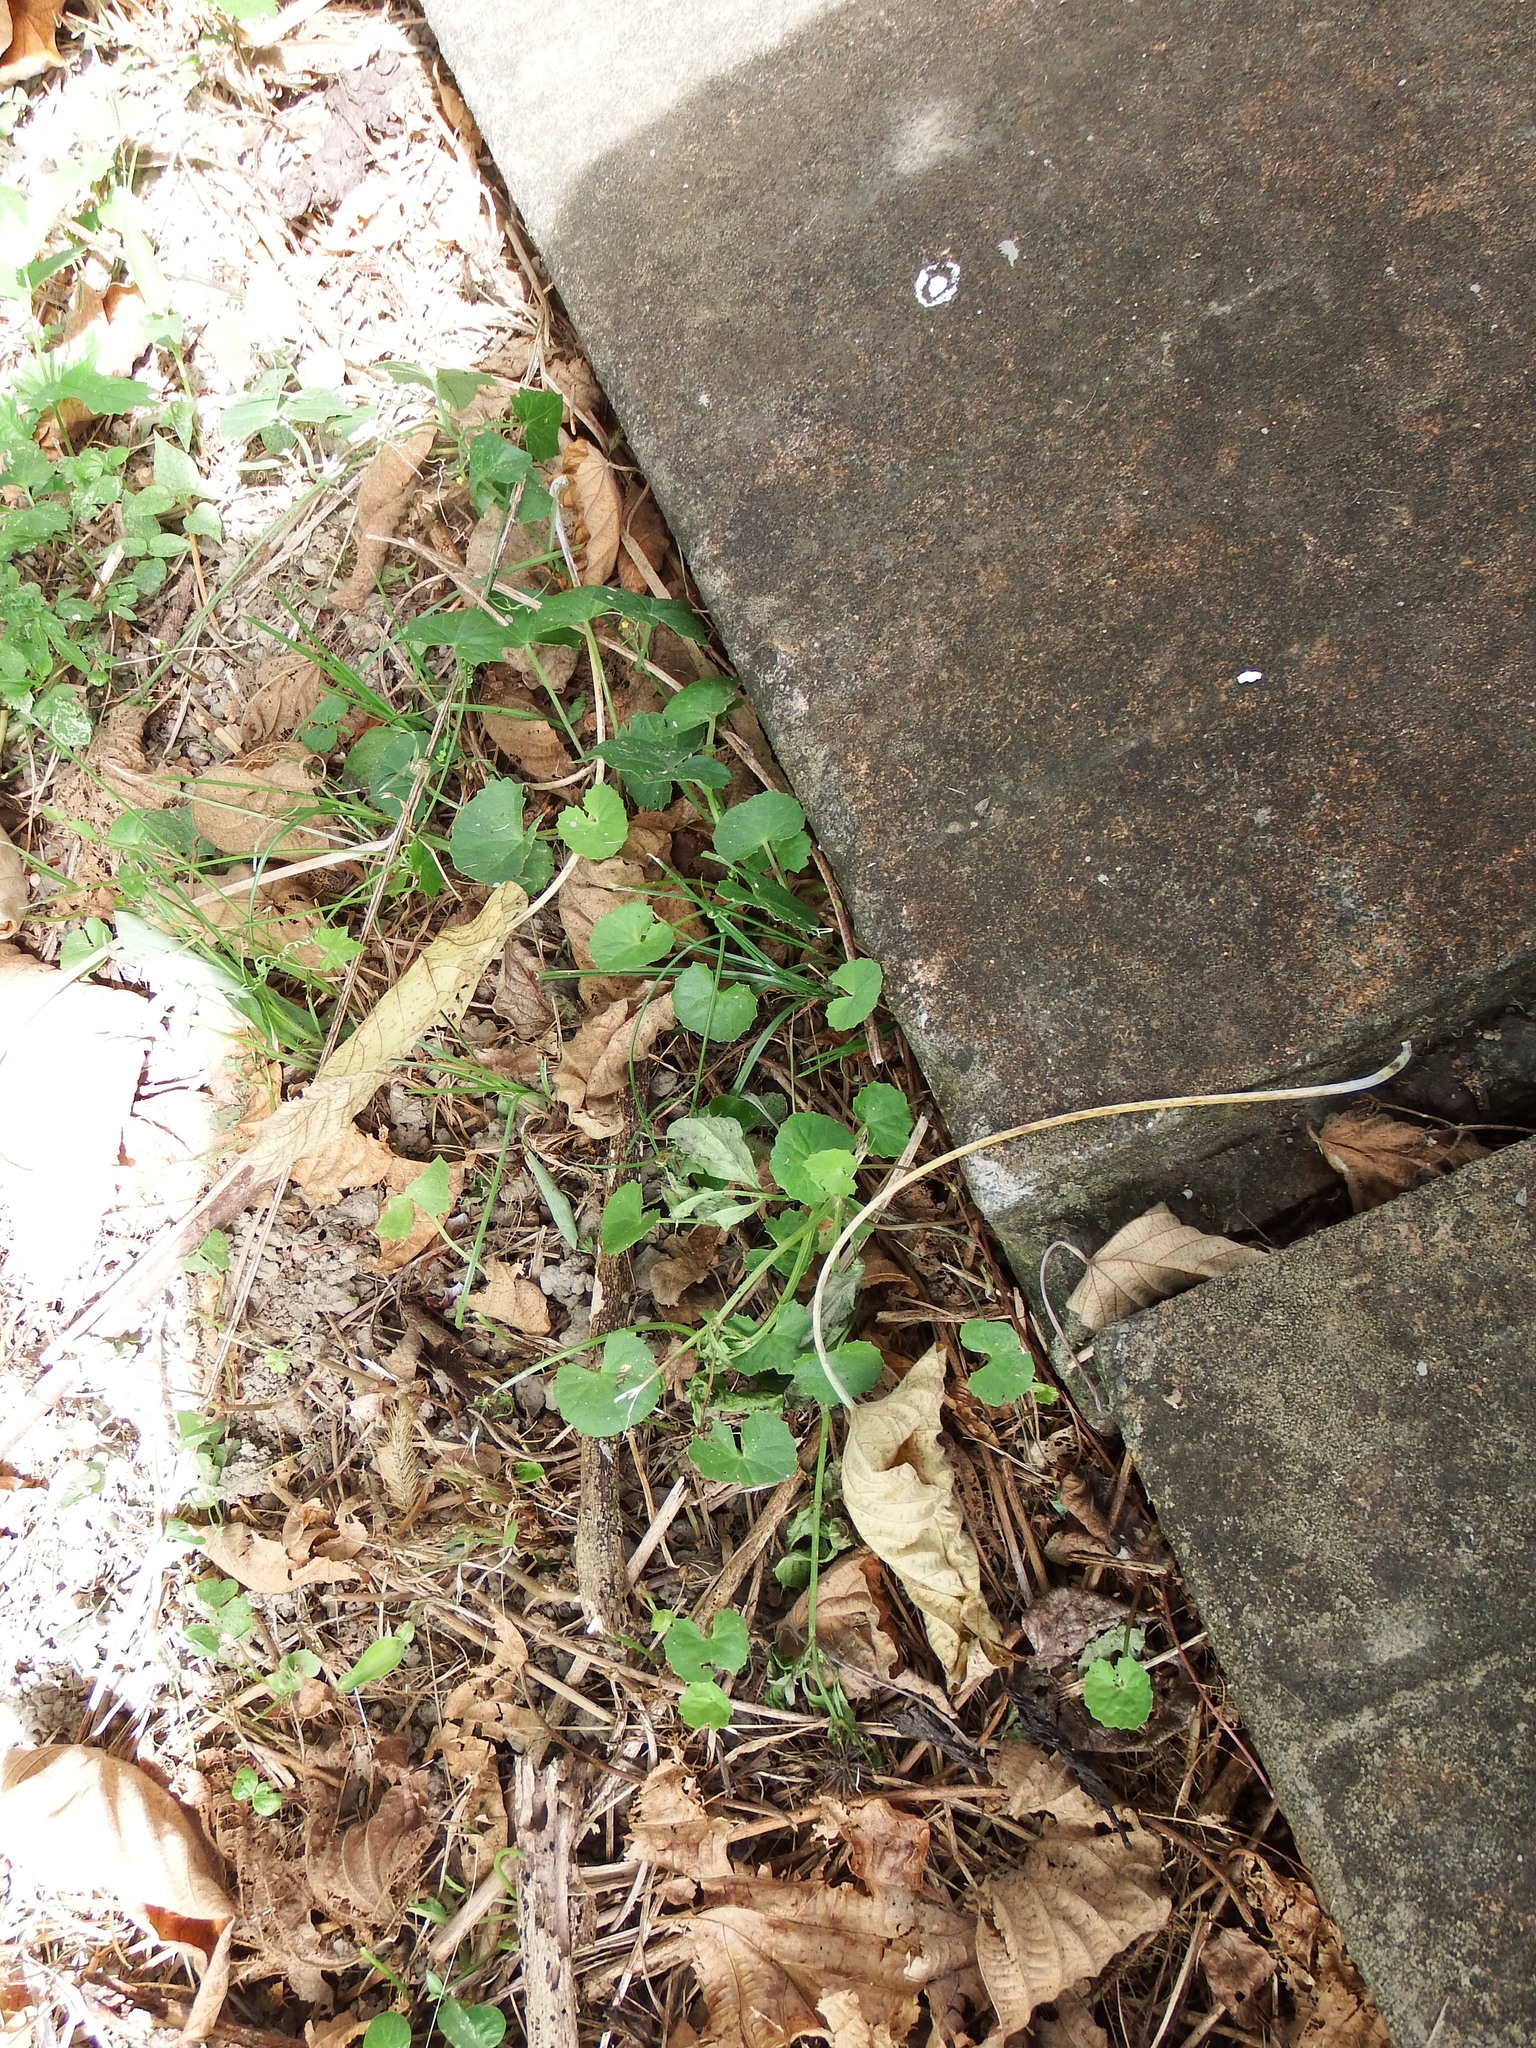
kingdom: Plantae
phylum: Tracheophyta
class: Magnoliopsida
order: Apiales
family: Apiaceae
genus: Centella
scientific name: Centella asiatica
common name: Spadeleaf
